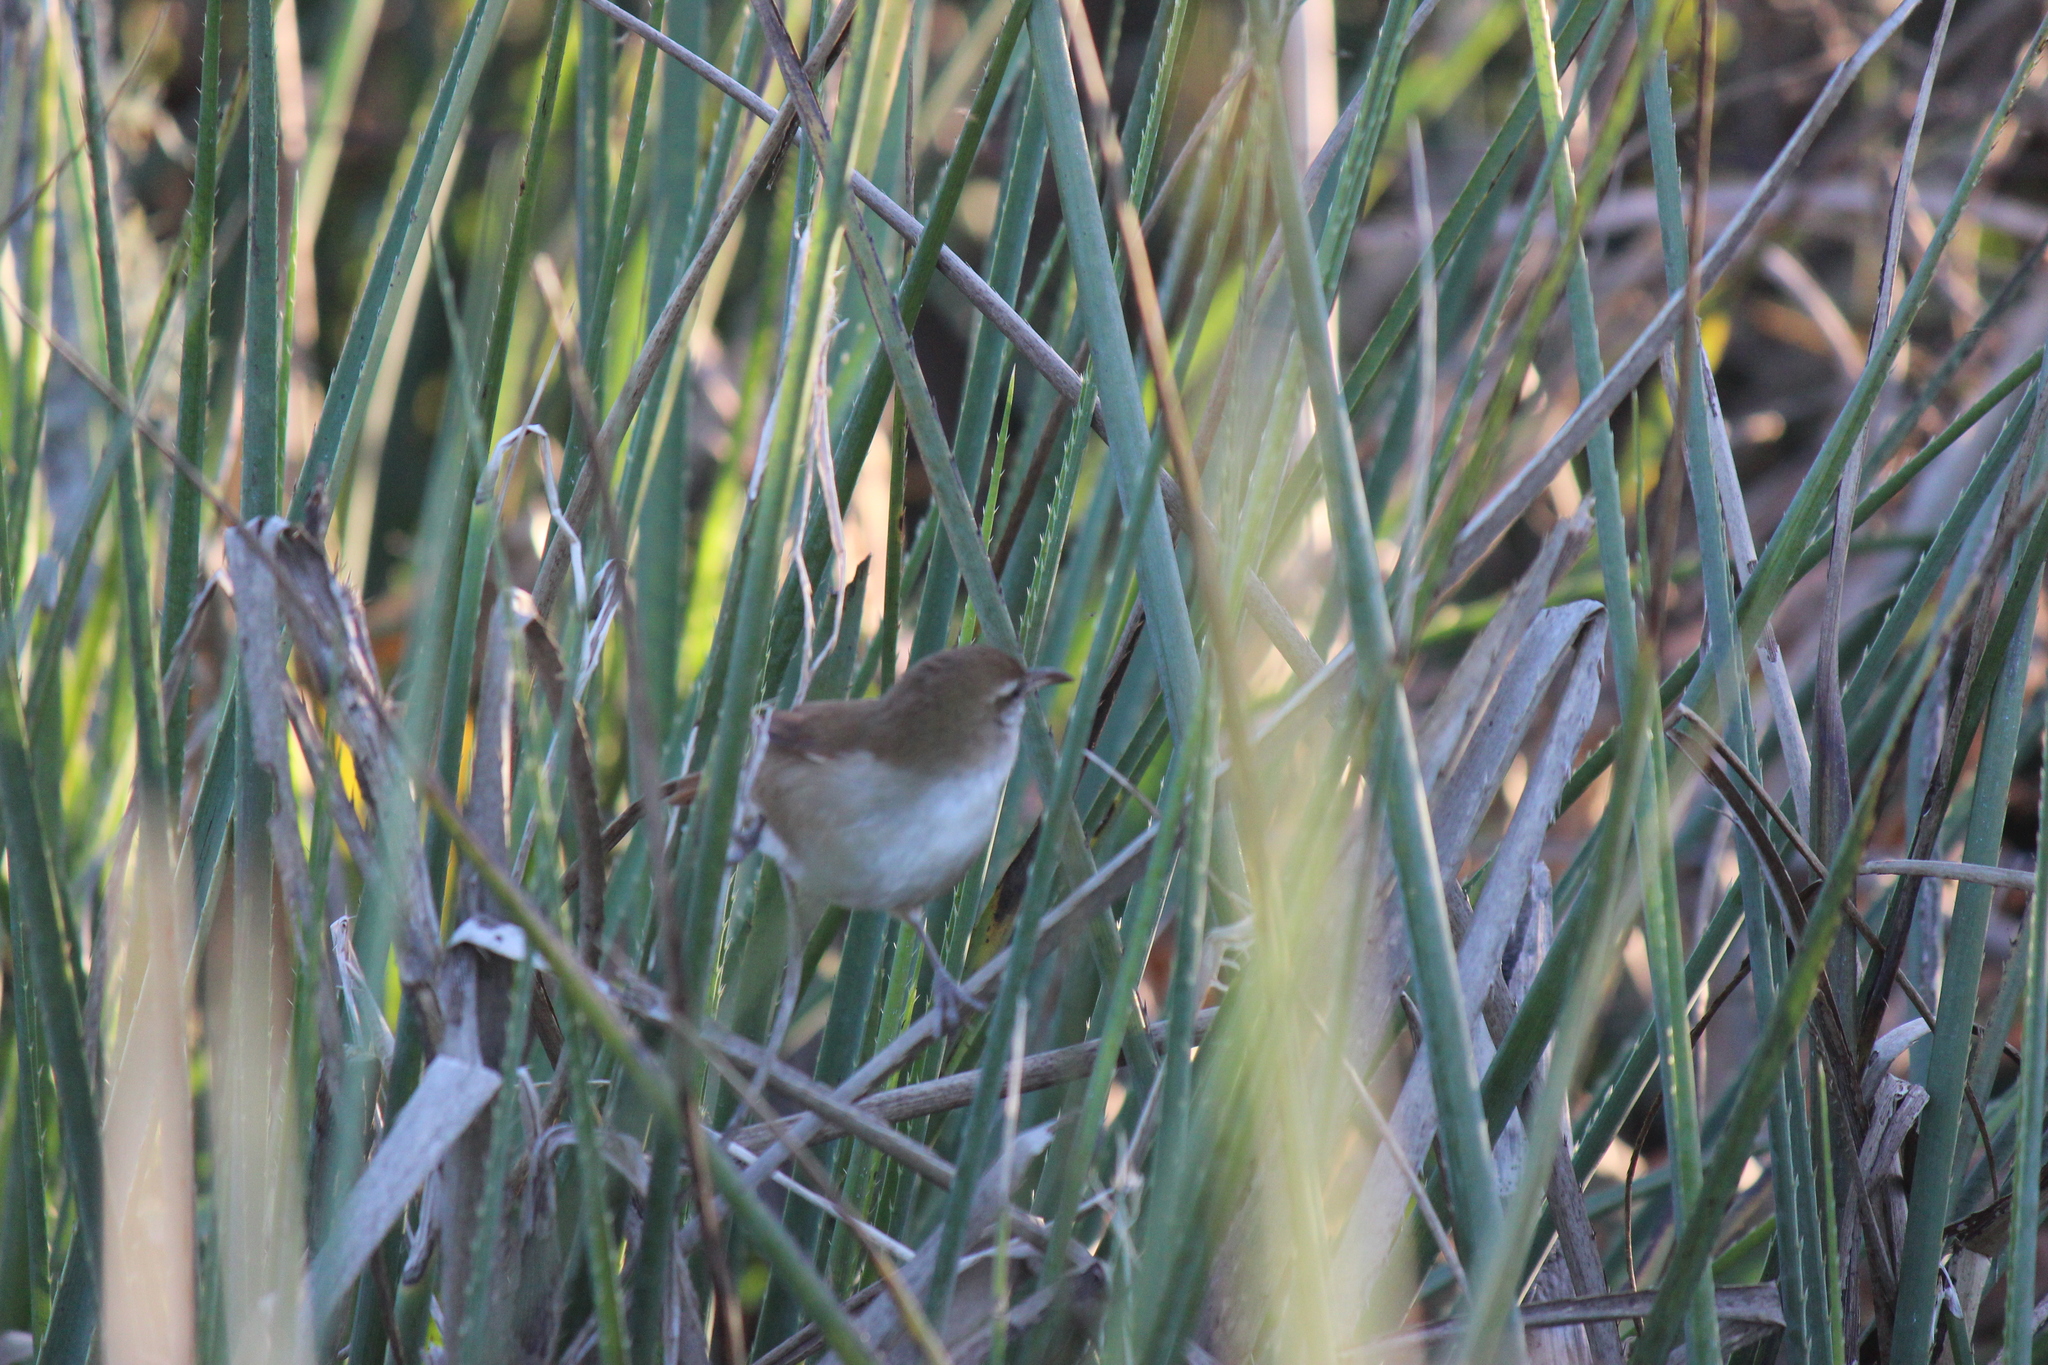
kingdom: Animalia
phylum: Chordata
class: Aves
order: Passeriformes
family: Furnariidae
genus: Limnornis
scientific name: Limnornis curvirostris
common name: Curve-billed reedhaunter
